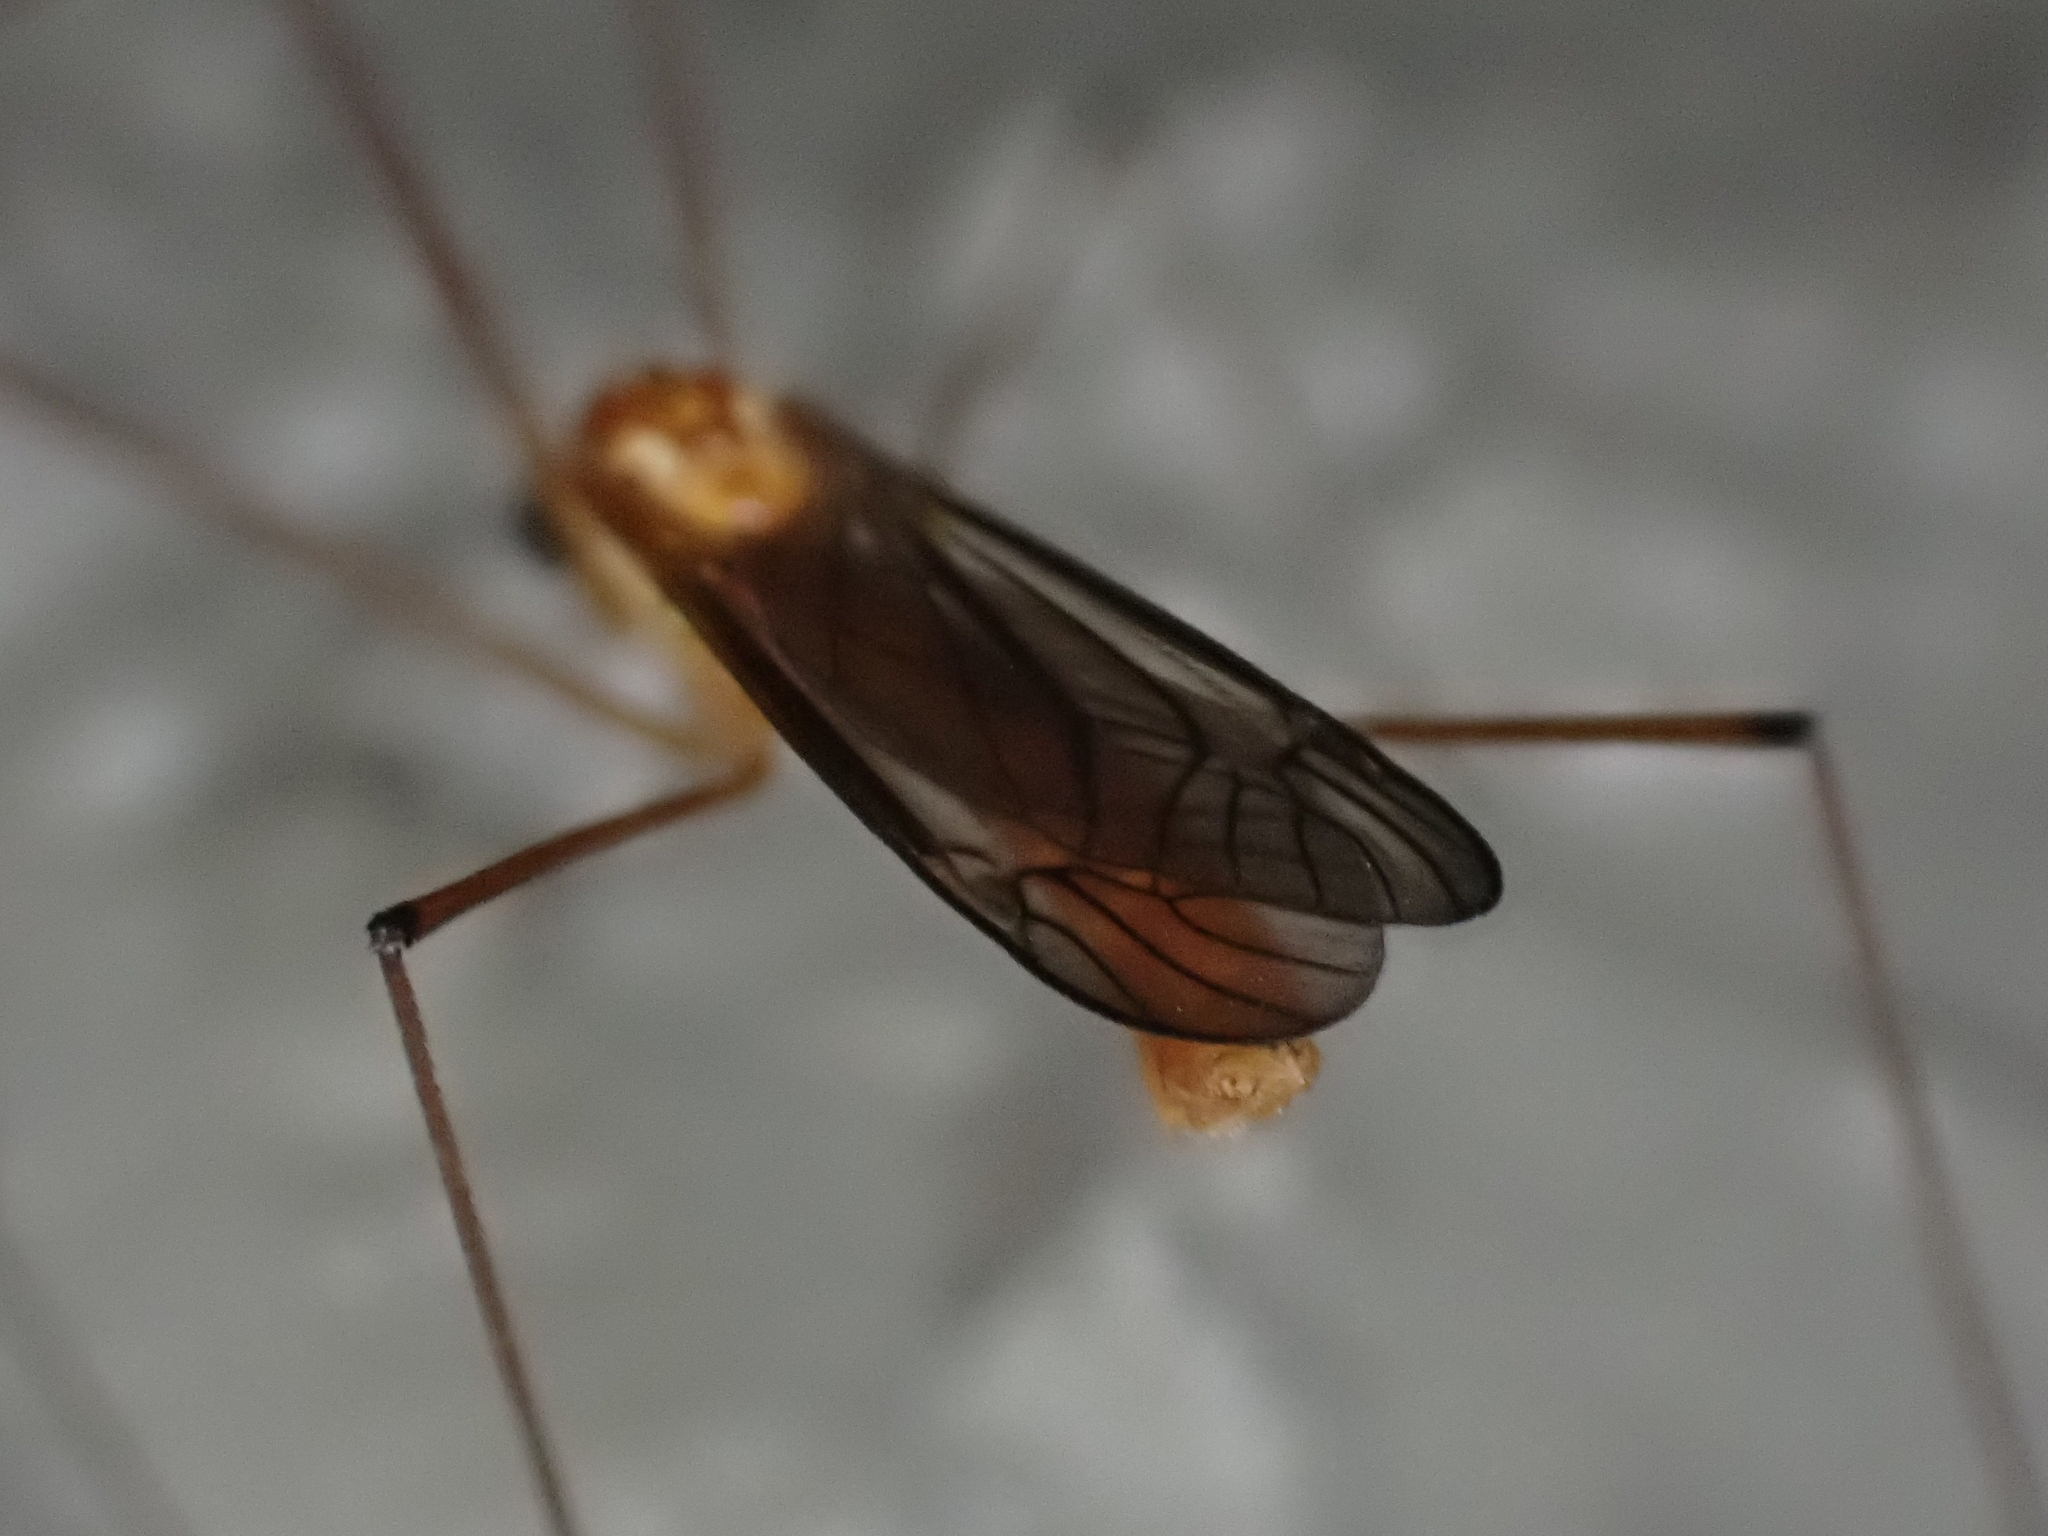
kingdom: Animalia
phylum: Arthropoda
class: Insecta
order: Diptera
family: Tipulidae
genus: Nephrotoma
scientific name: Nephrotoma suturalis
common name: Cranefly
